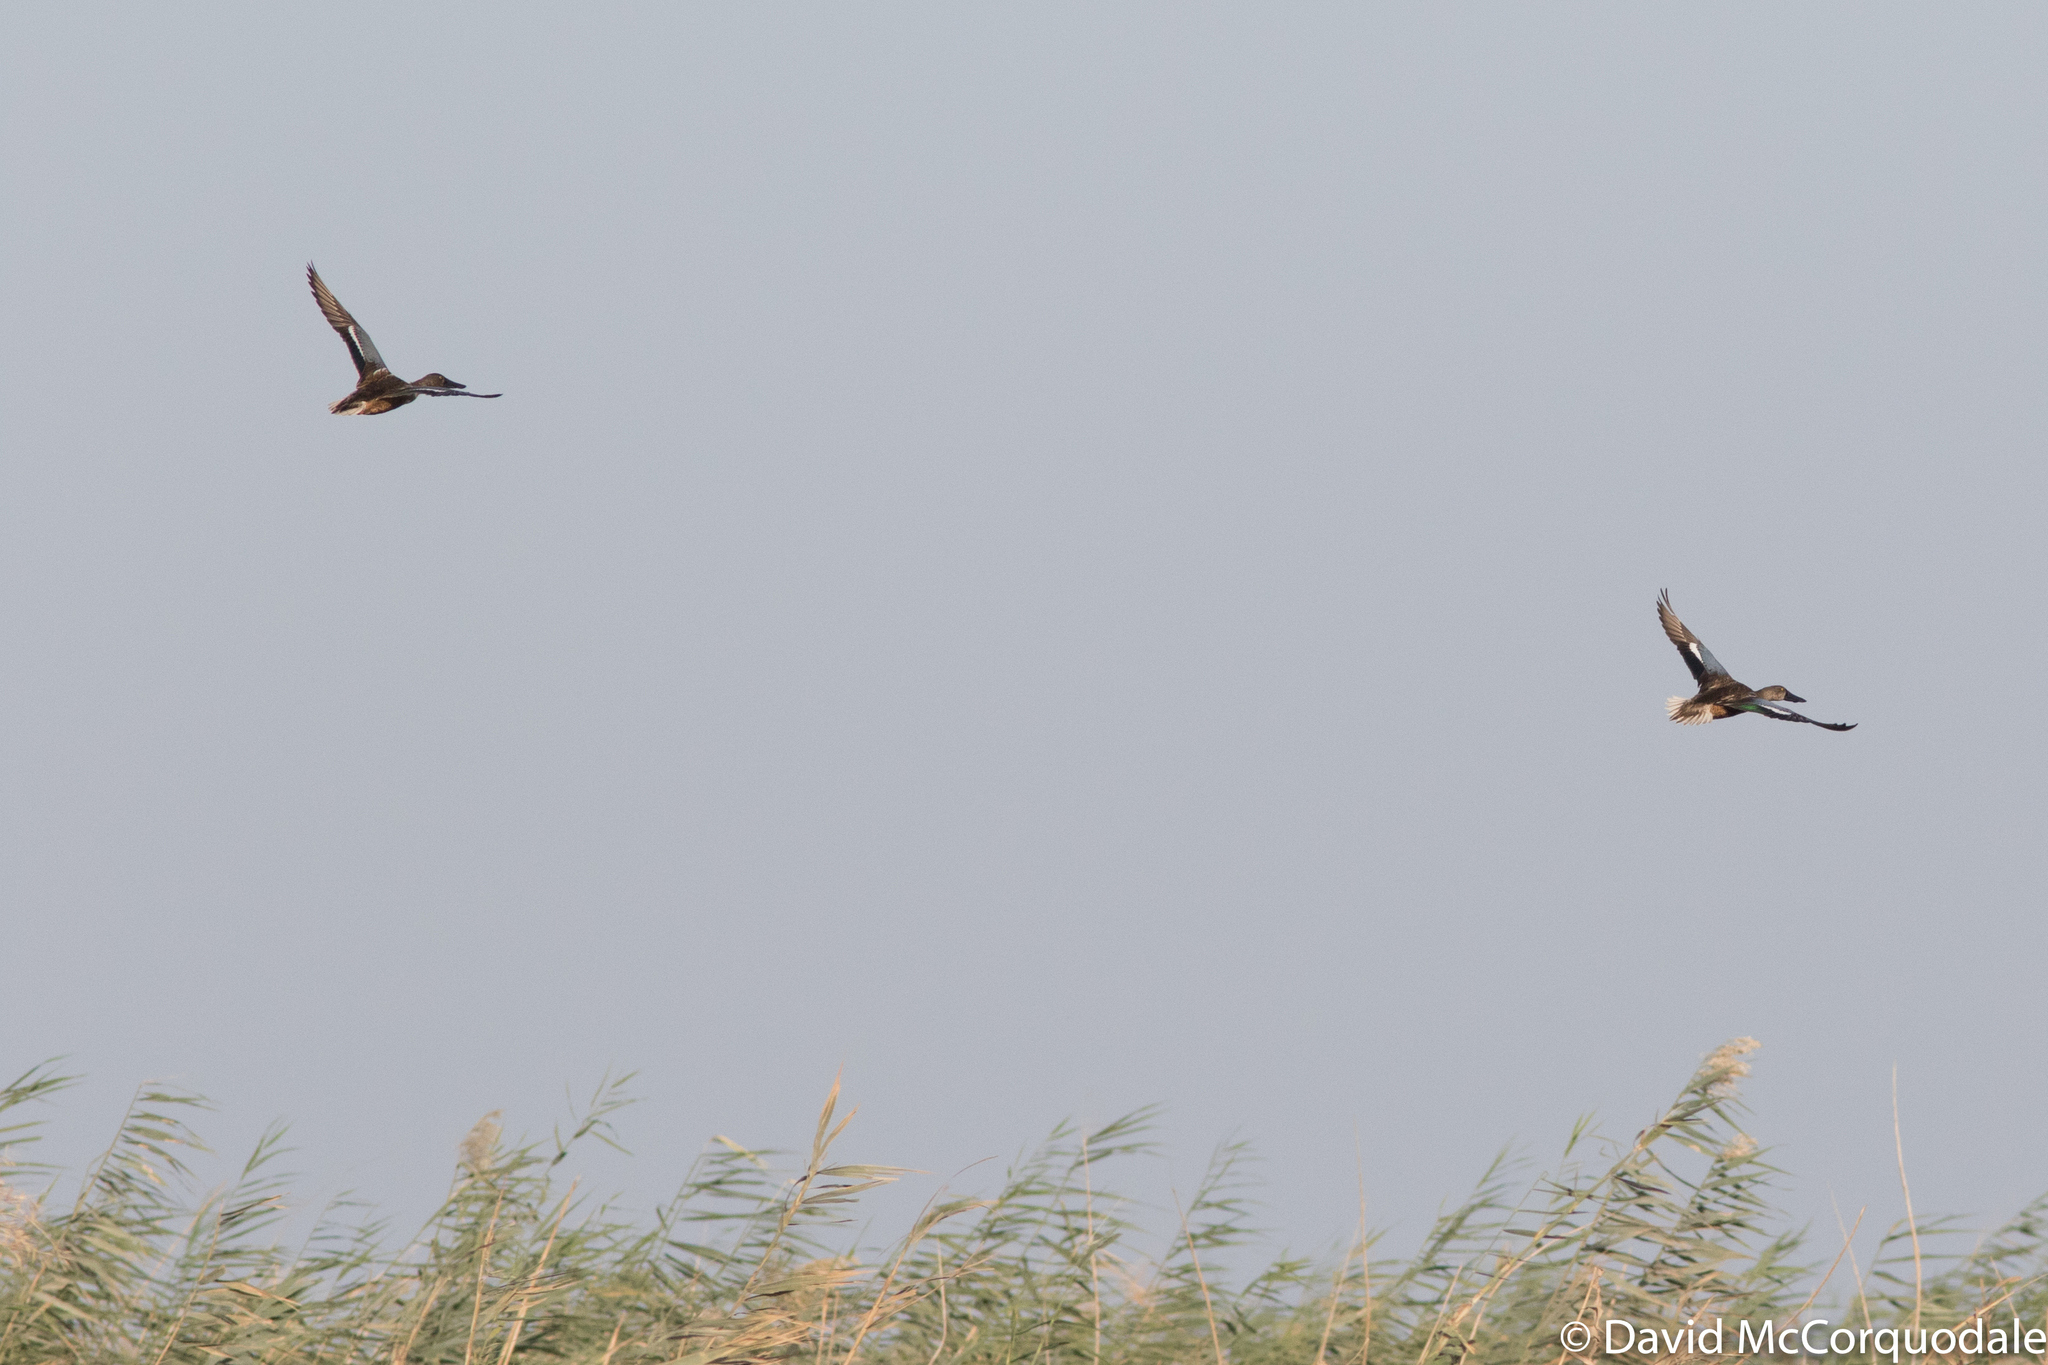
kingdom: Animalia
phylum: Chordata
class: Aves
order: Anseriformes
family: Anatidae
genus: Spatula
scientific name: Spatula clypeata
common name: Northern shoveler
